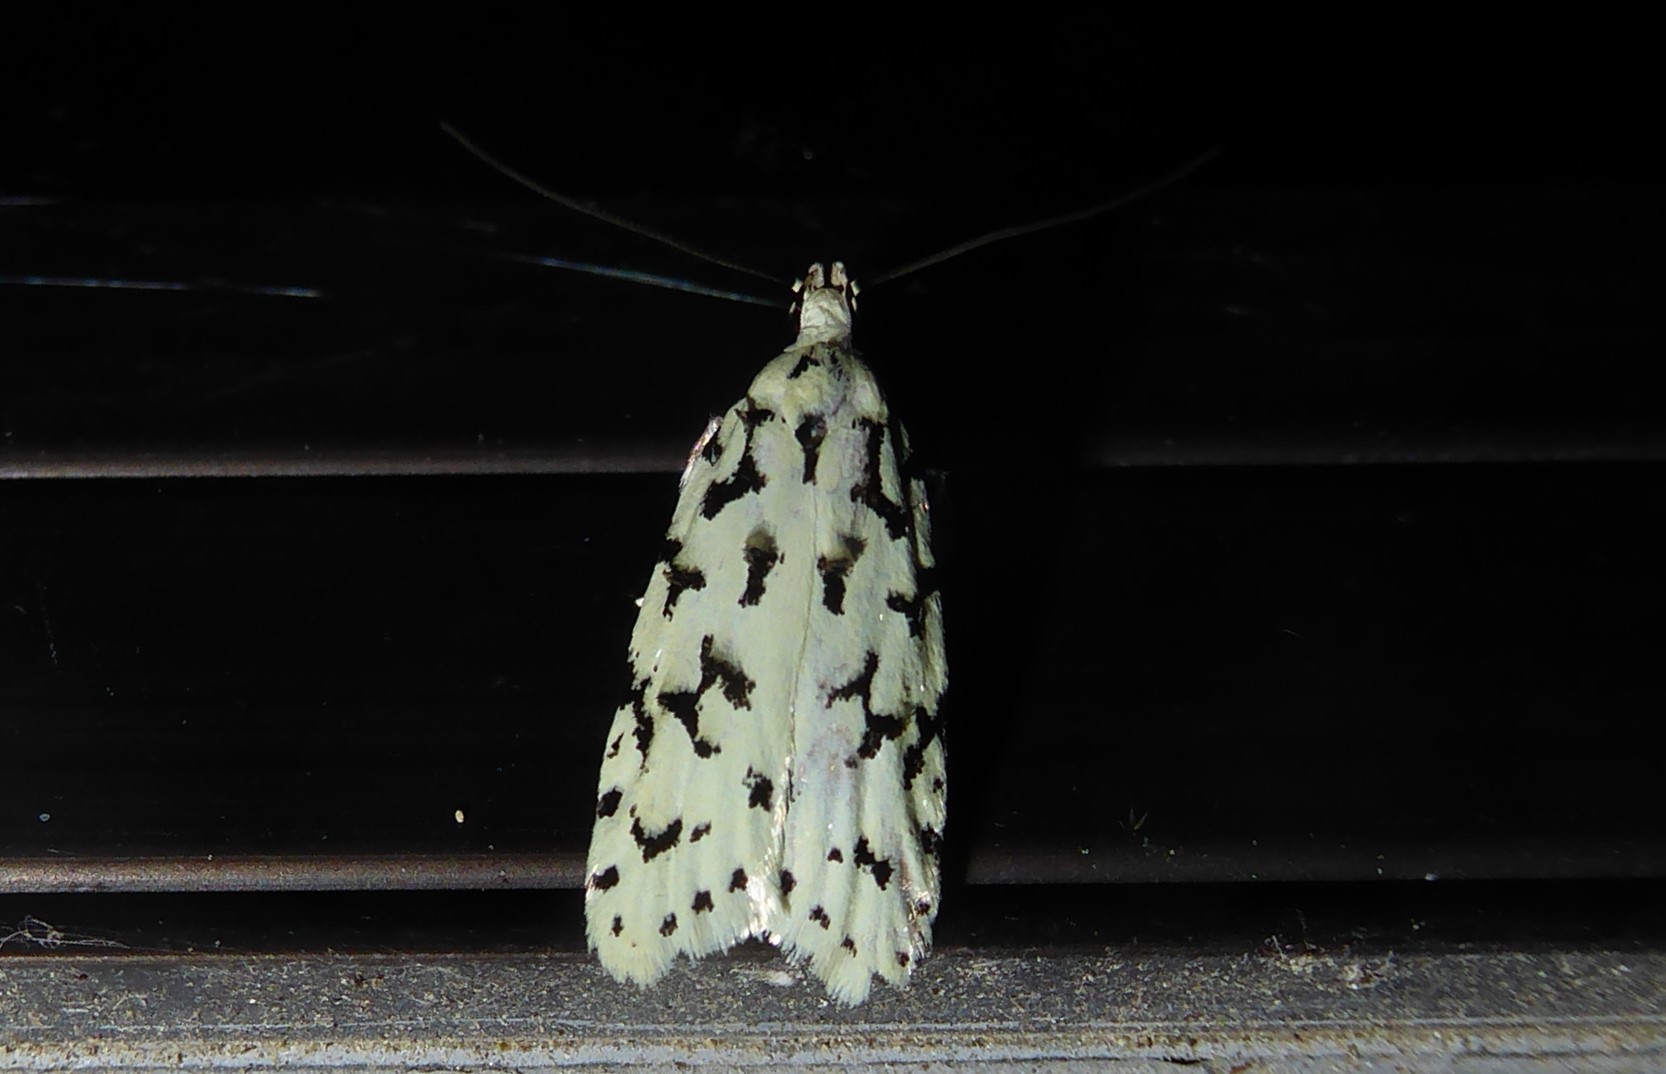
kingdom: Animalia
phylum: Arthropoda
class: Insecta
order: Lepidoptera
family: Oecophoridae
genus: Izatha
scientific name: Izatha huttoni
